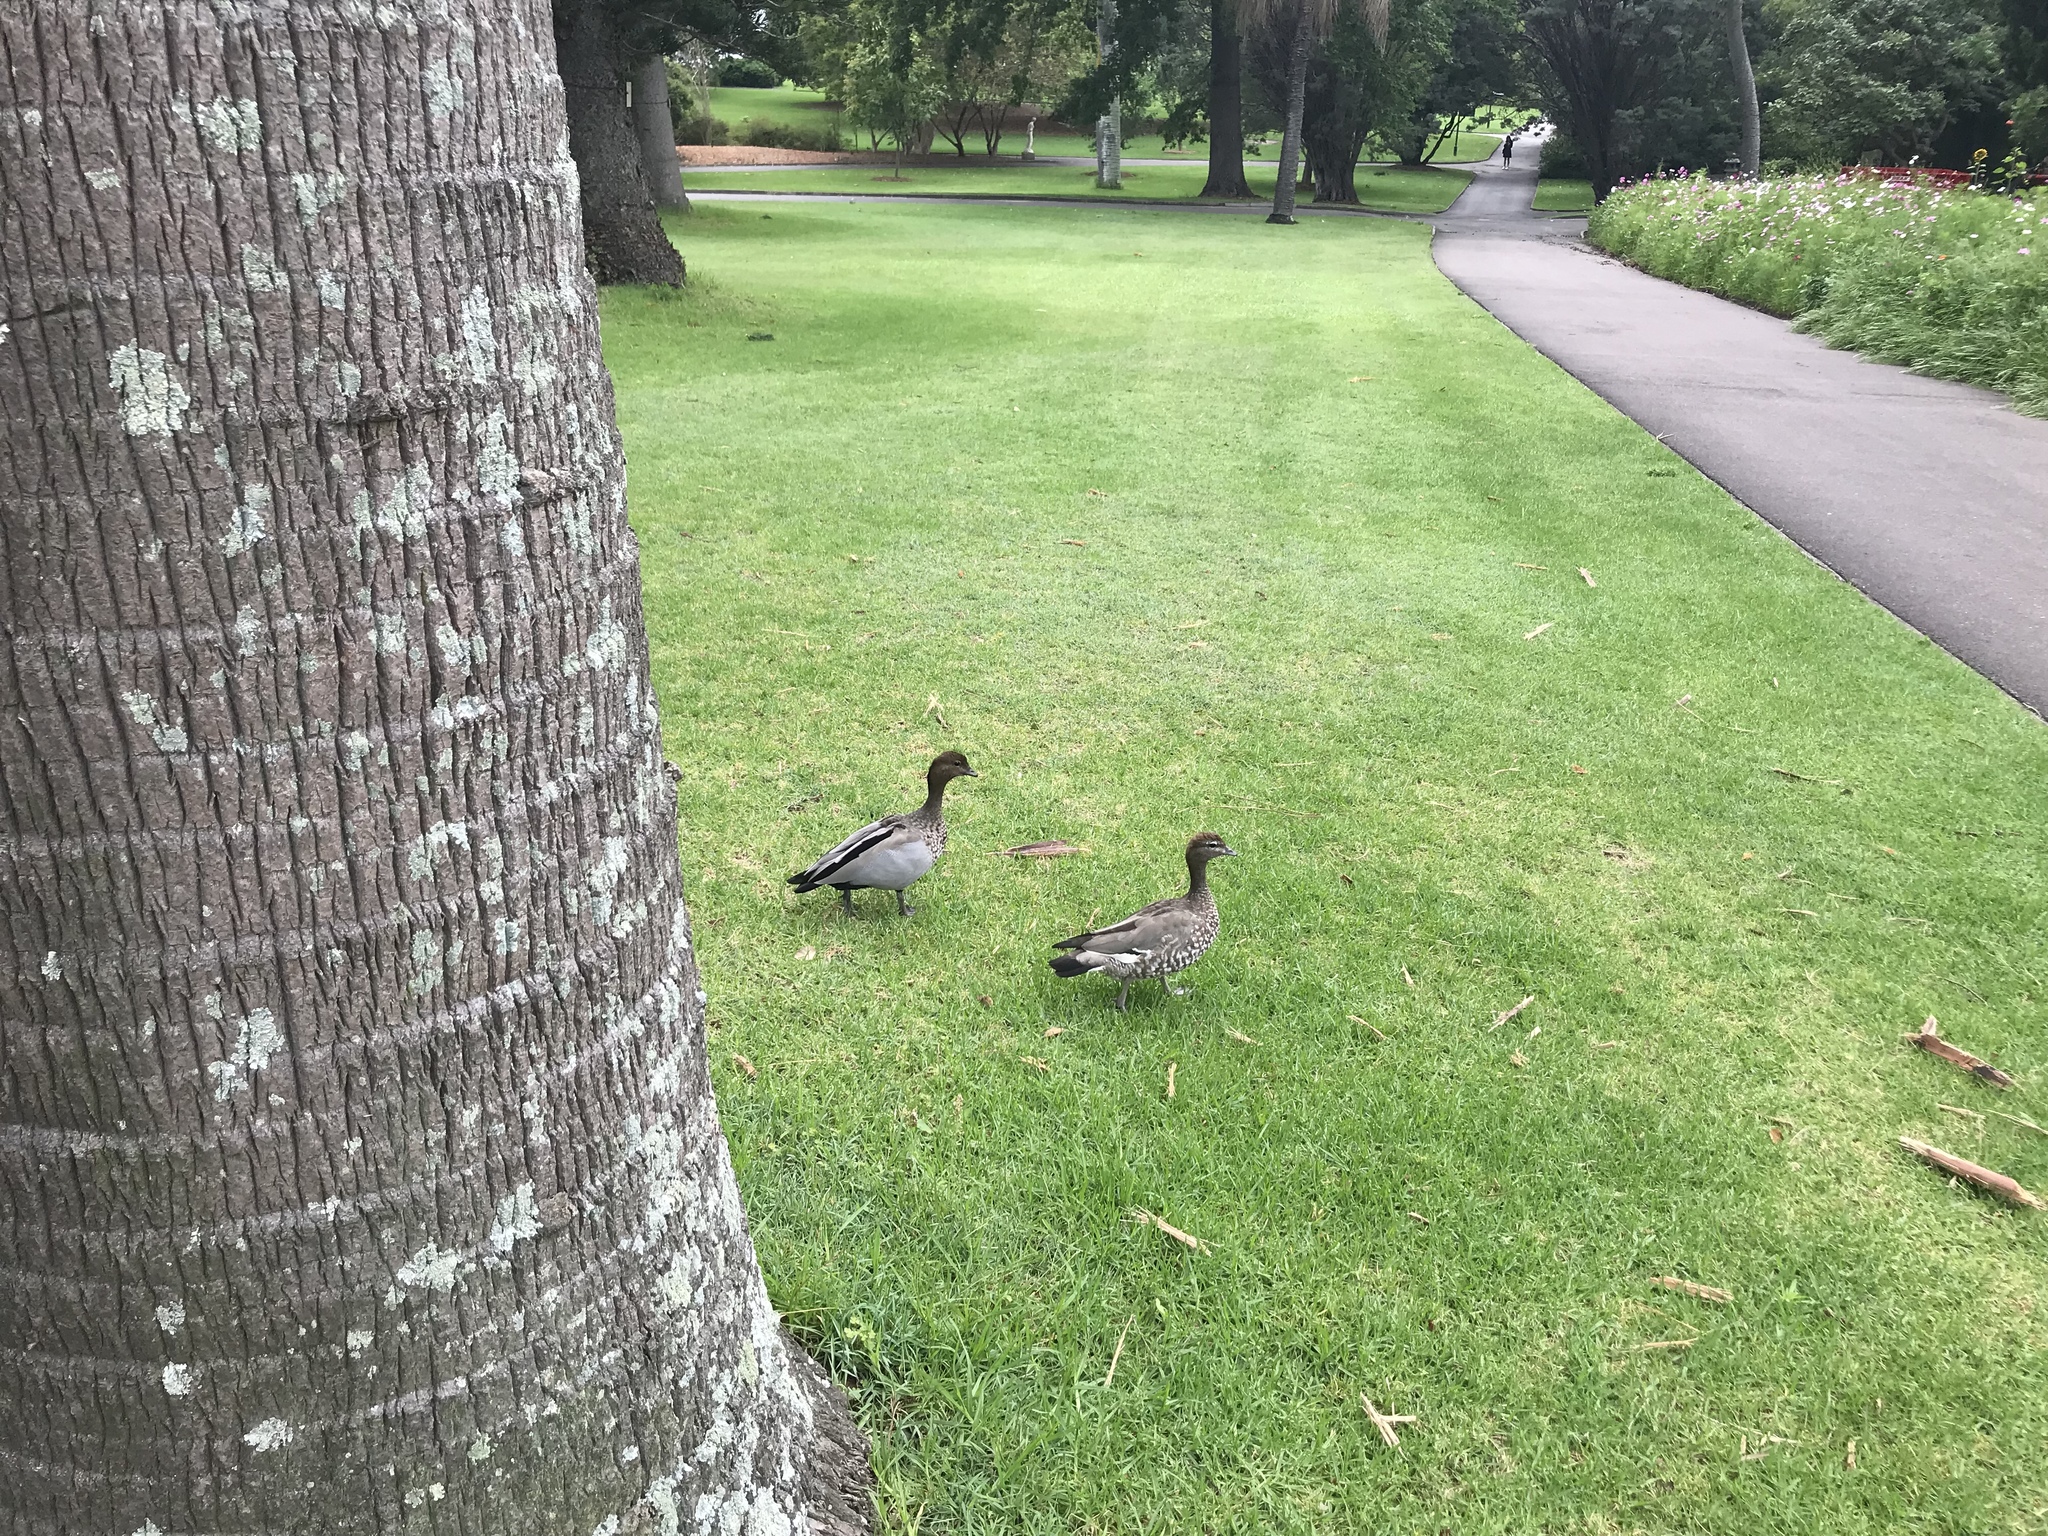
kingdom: Animalia
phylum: Chordata
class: Aves
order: Anseriformes
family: Anatidae
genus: Chenonetta
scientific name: Chenonetta jubata
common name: Maned duck
